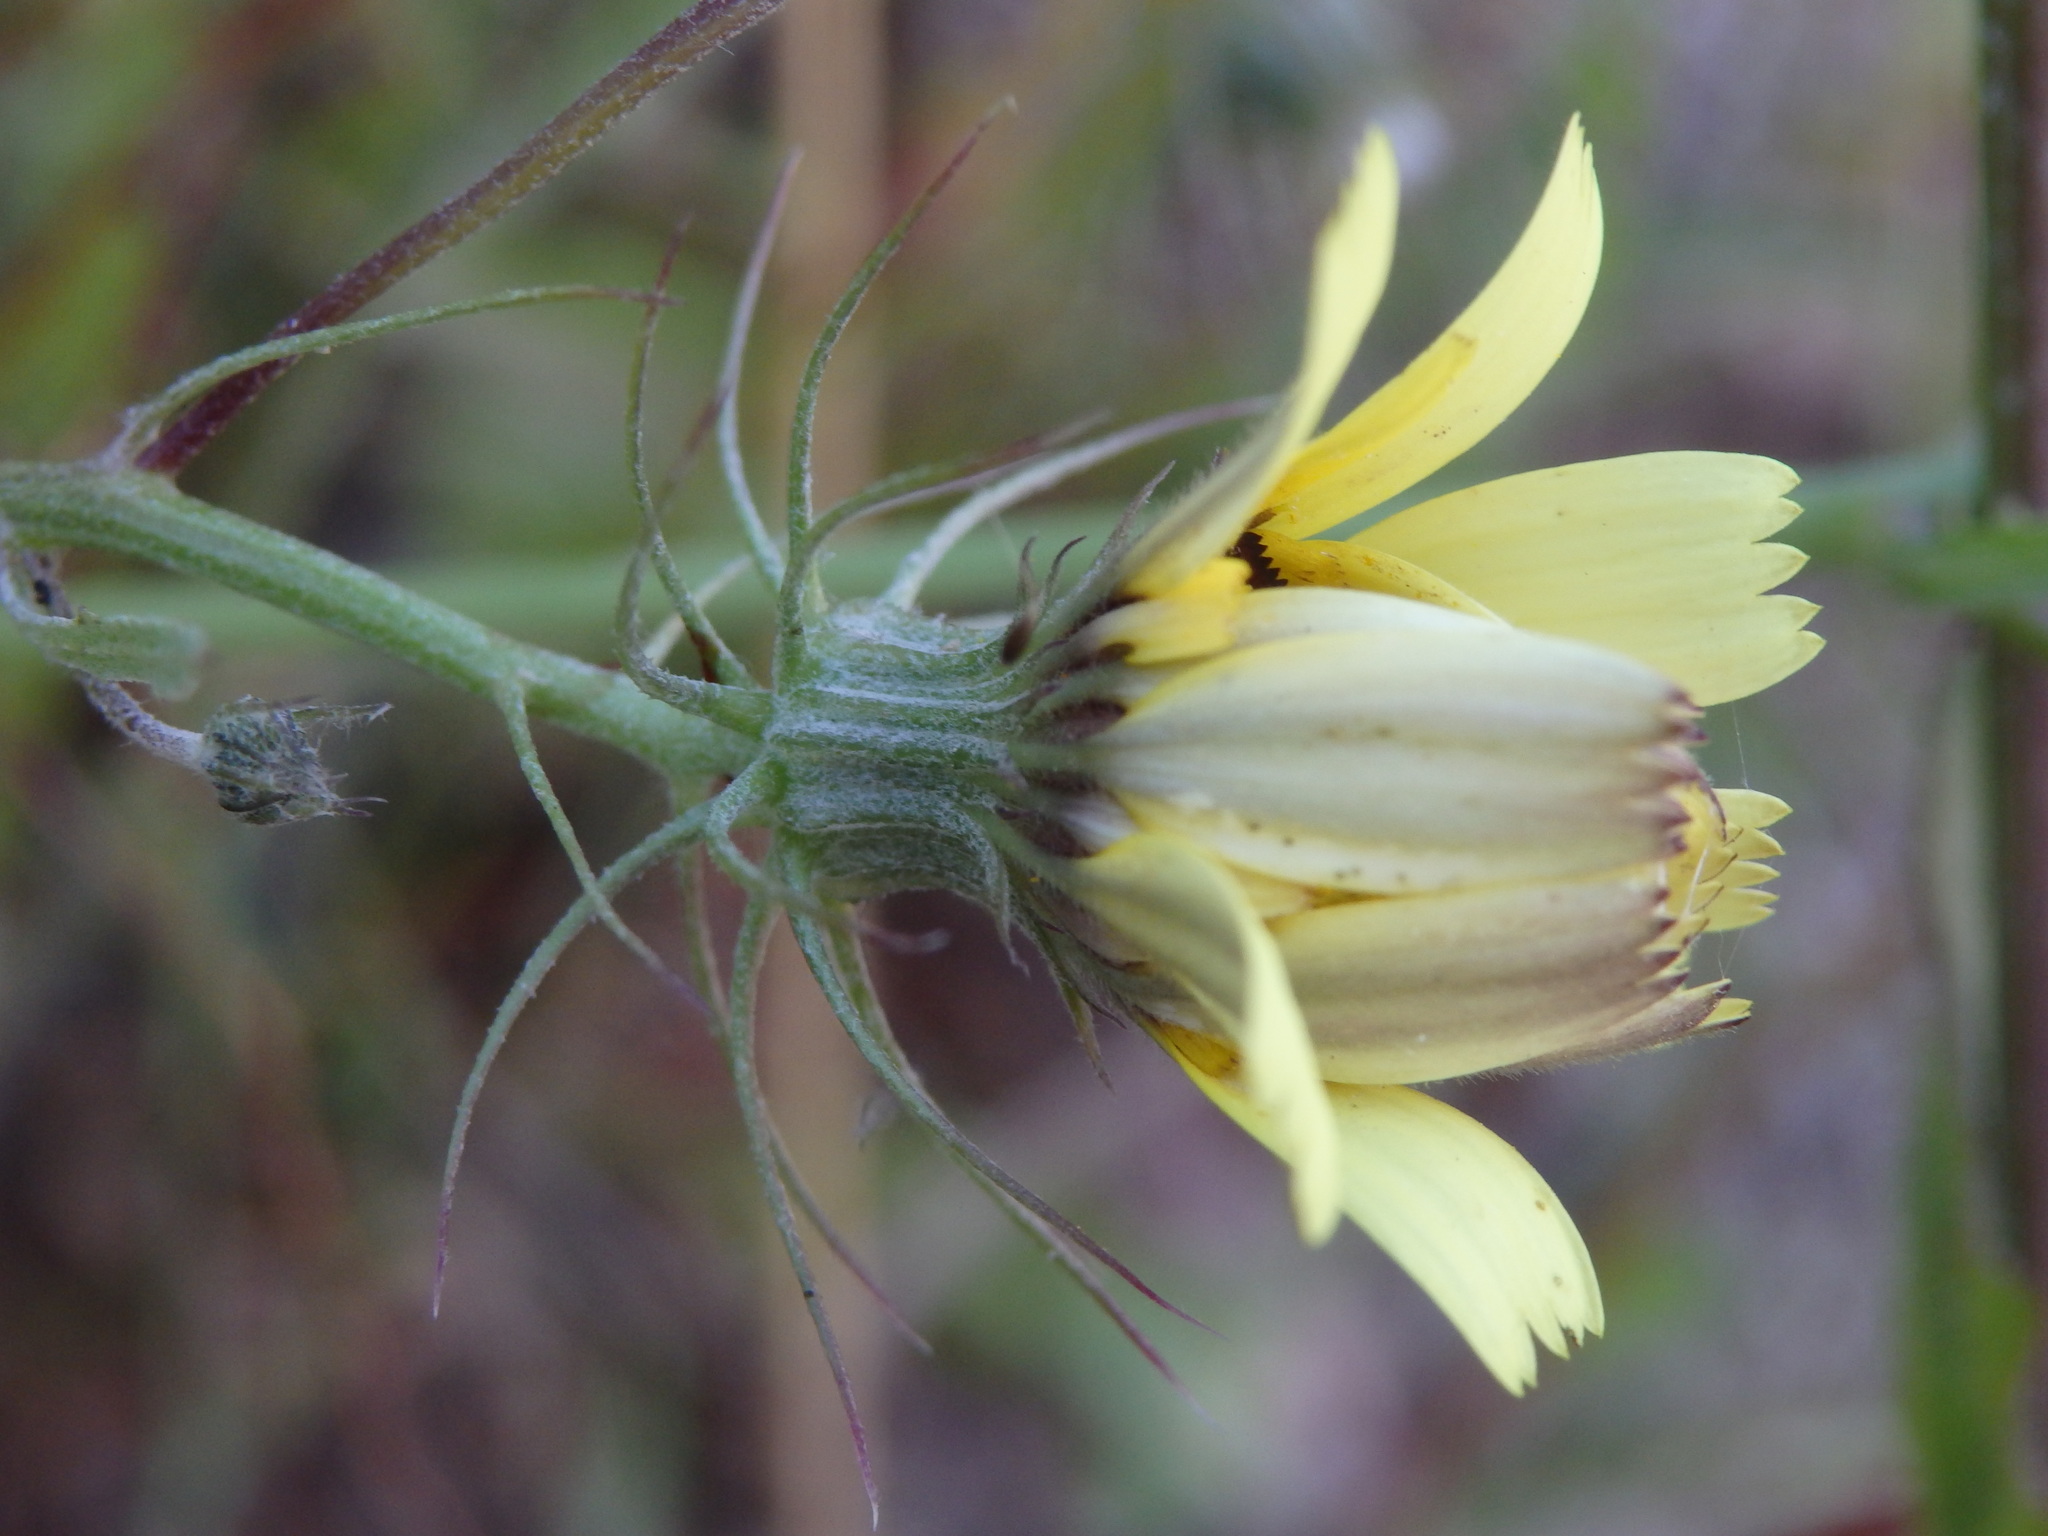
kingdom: Plantae
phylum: Tracheophyta
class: Magnoliopsida
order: Asterales
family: Asteraceae
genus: Tolpis
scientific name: Tolpis barbata
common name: Yellow hawkweed
